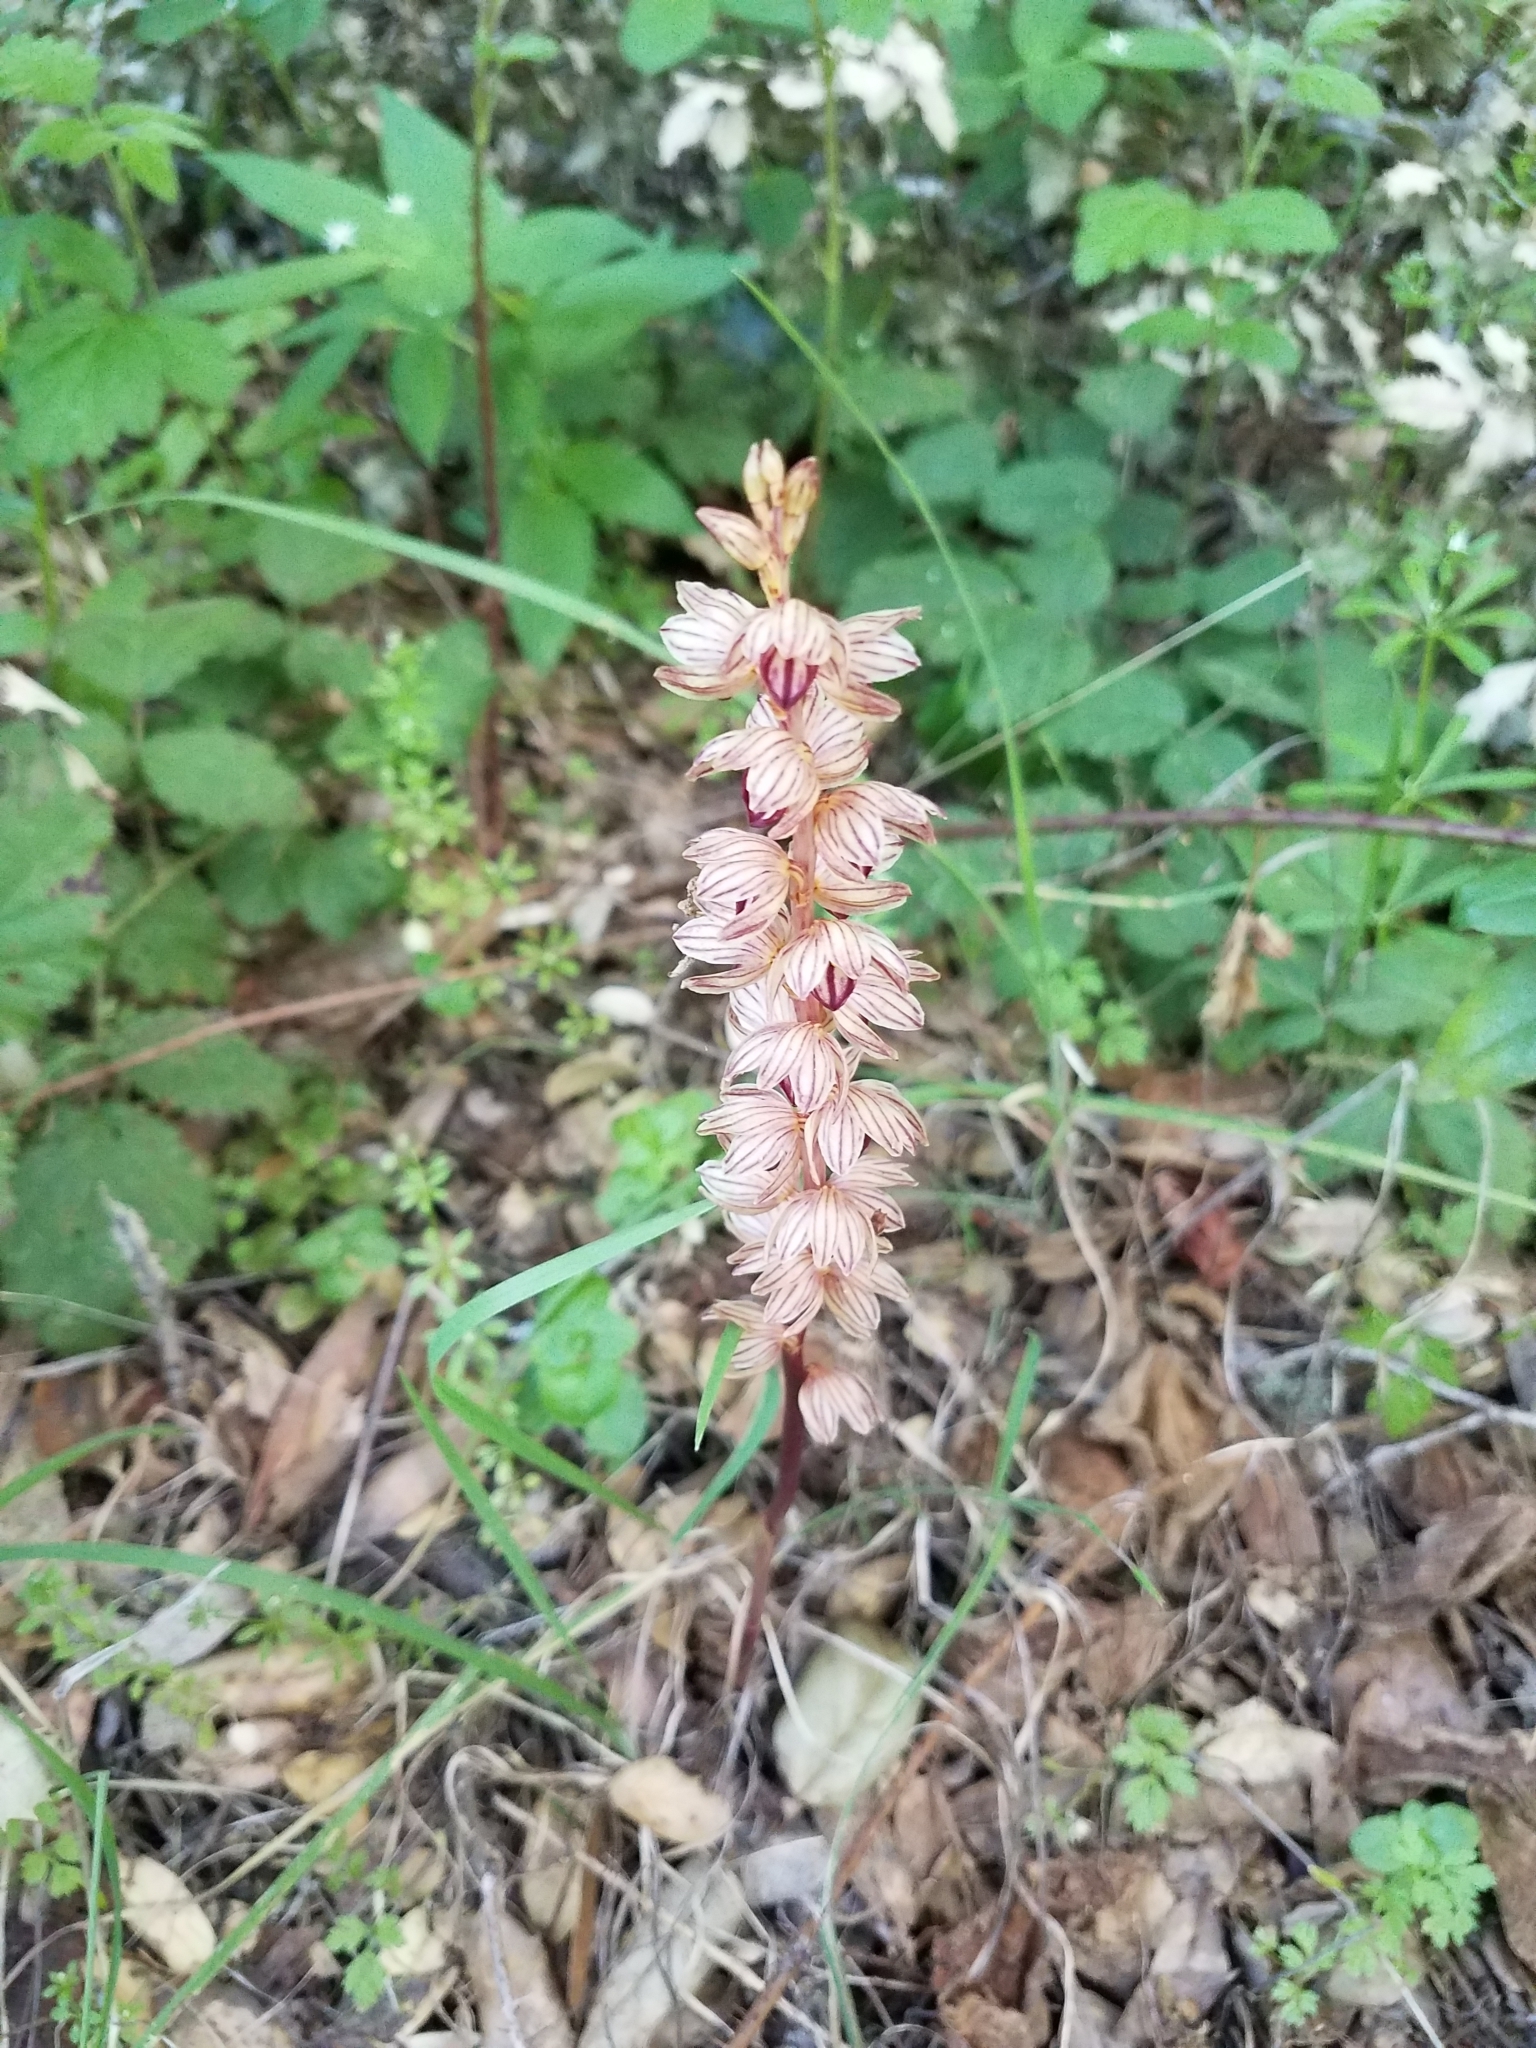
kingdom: Plantae
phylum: Tracheophyta
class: Liliopsida
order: Asparagales
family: Orchidaceae
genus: Corallorhiza
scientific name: Corallorhiza striata
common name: Hooded coralroot
